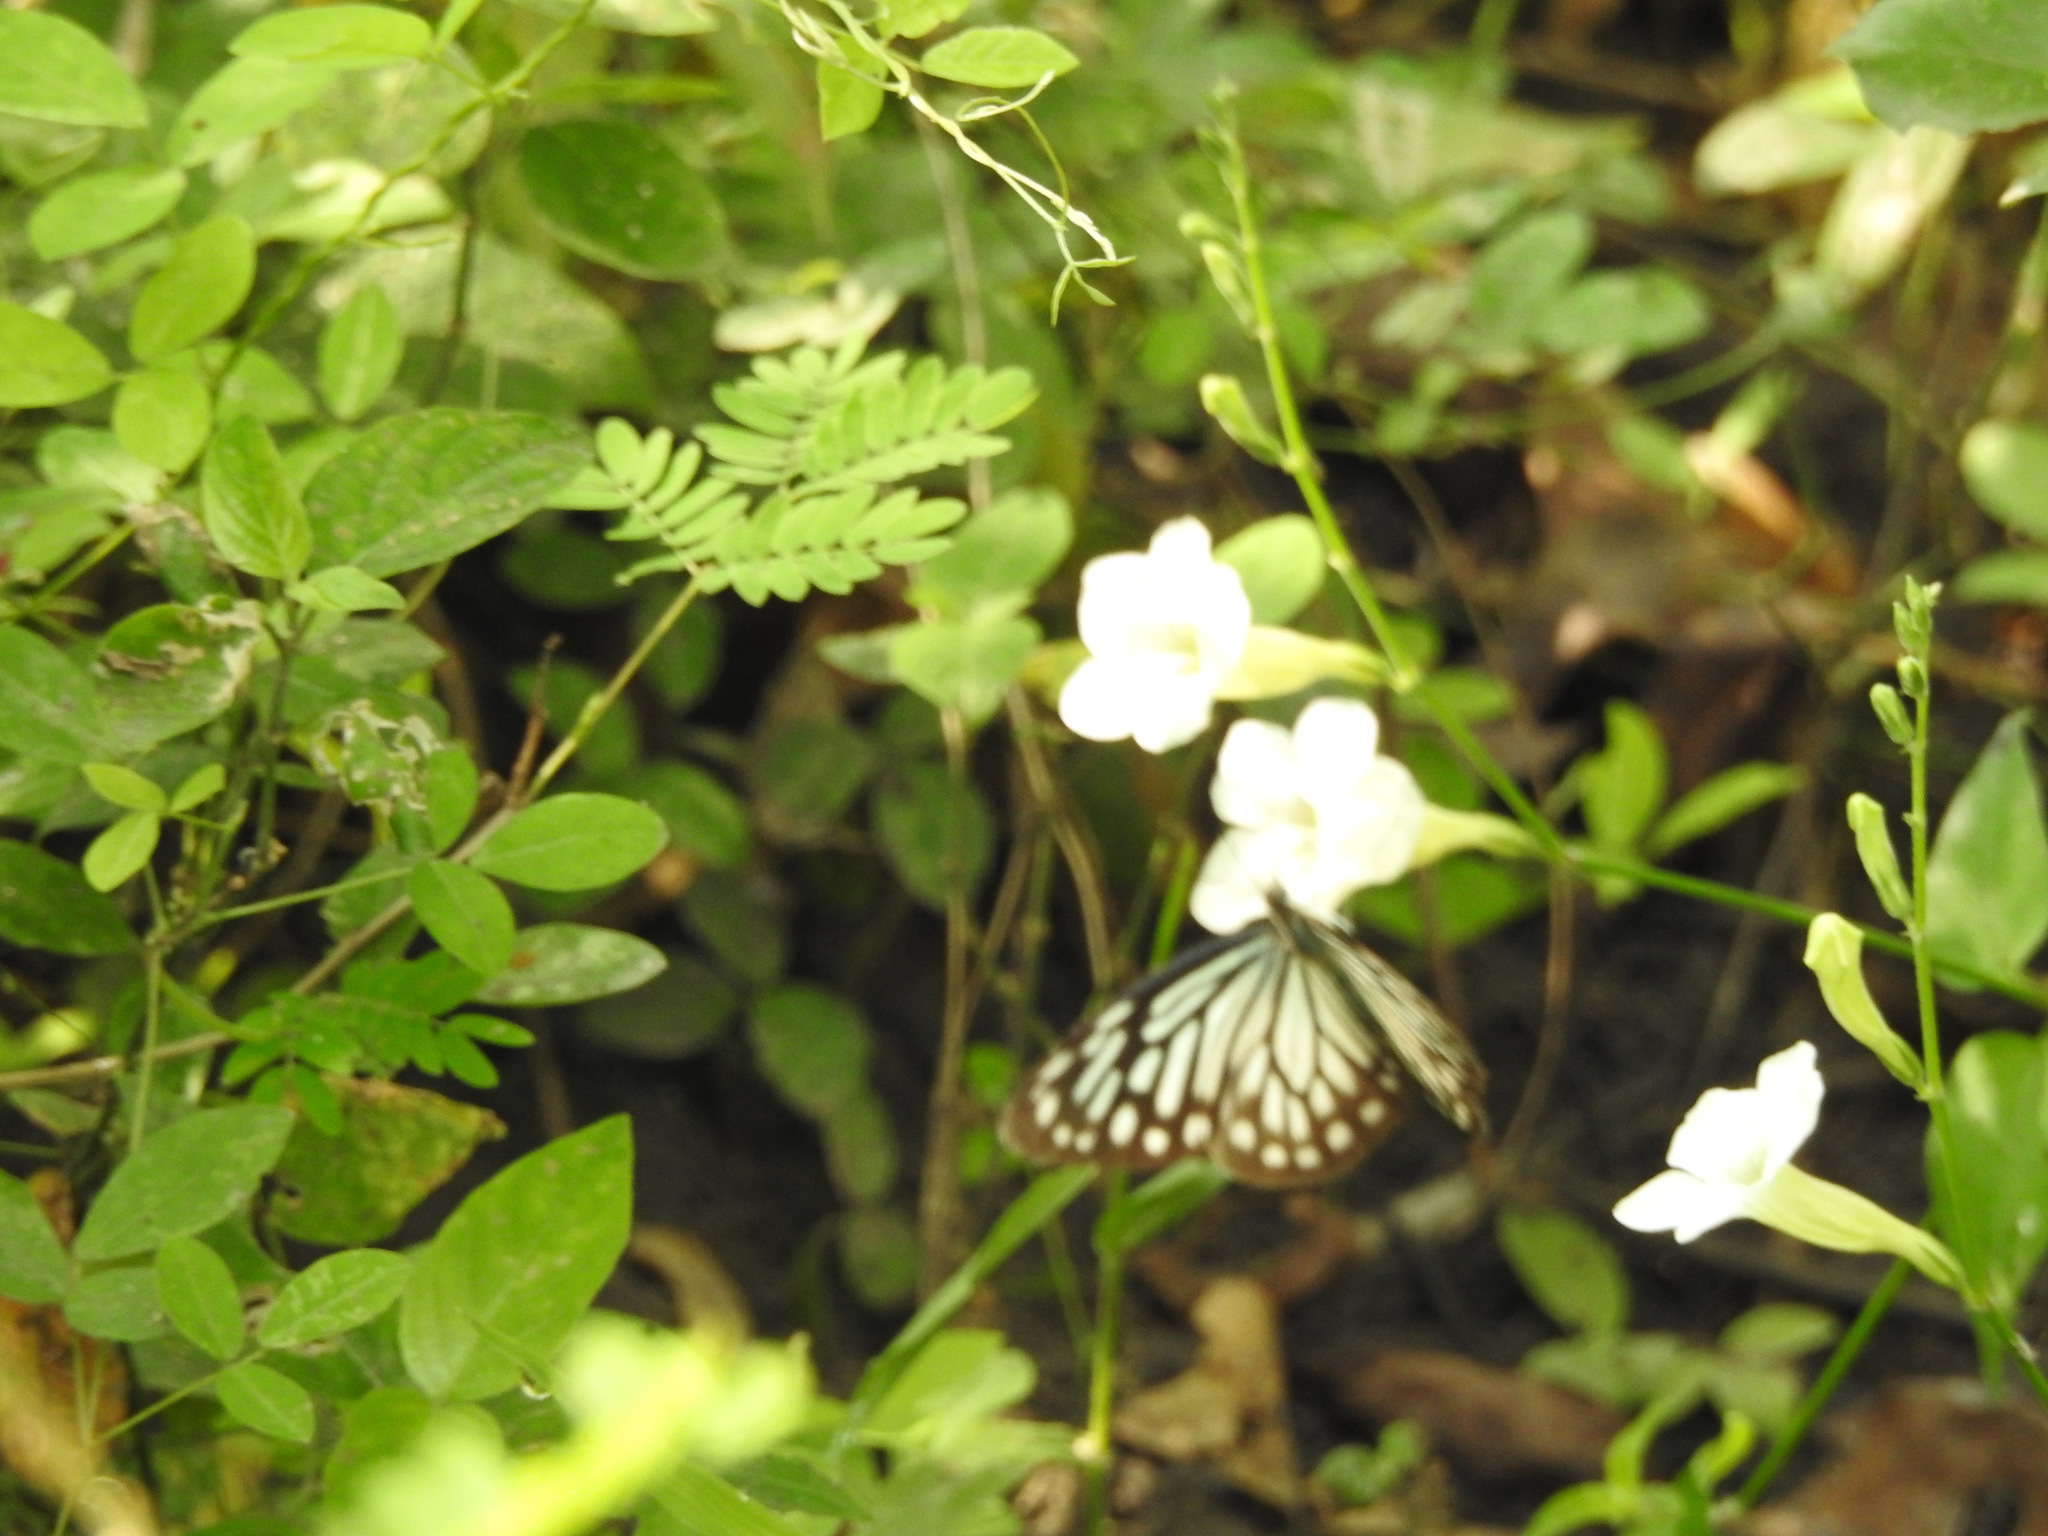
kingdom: Plantae
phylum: Tracheophyta
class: Magnoliopsida
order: Lamiales
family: Acanthaceae
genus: Asystasia
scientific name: Asystasia gangetica
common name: Chinese violet
